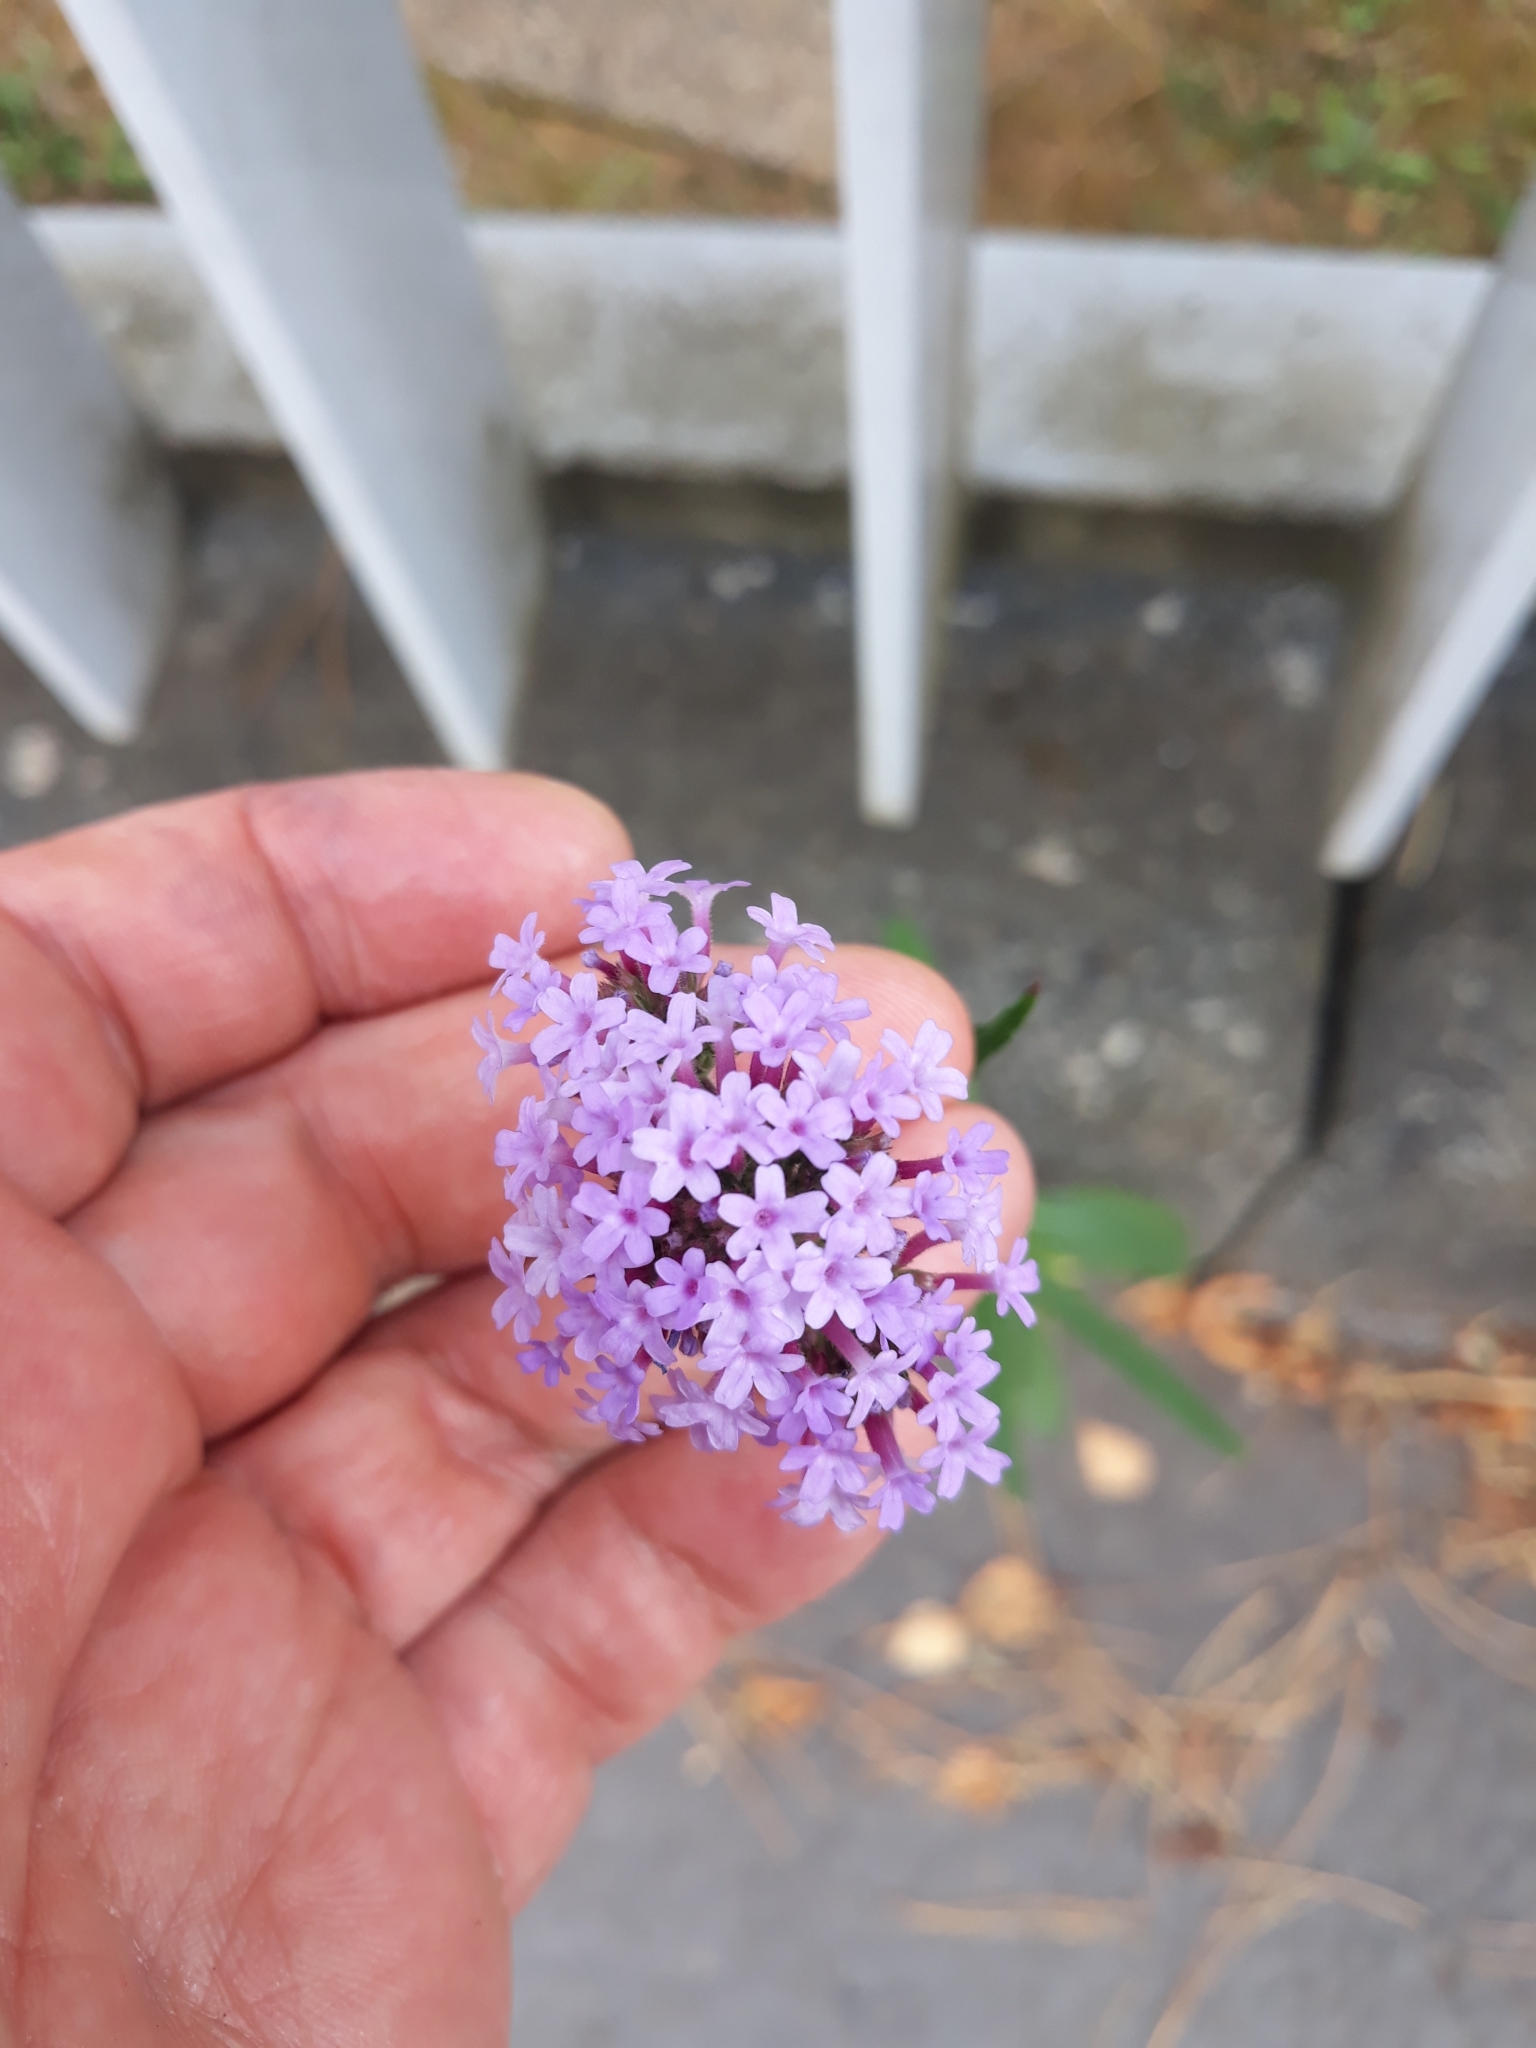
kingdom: Plantae
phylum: Tracheophyta
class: Magnoliopsida
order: Lamiales
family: Verbenaceae
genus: Verbena
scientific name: Verbena bonariensis
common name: Purpletop vervain
